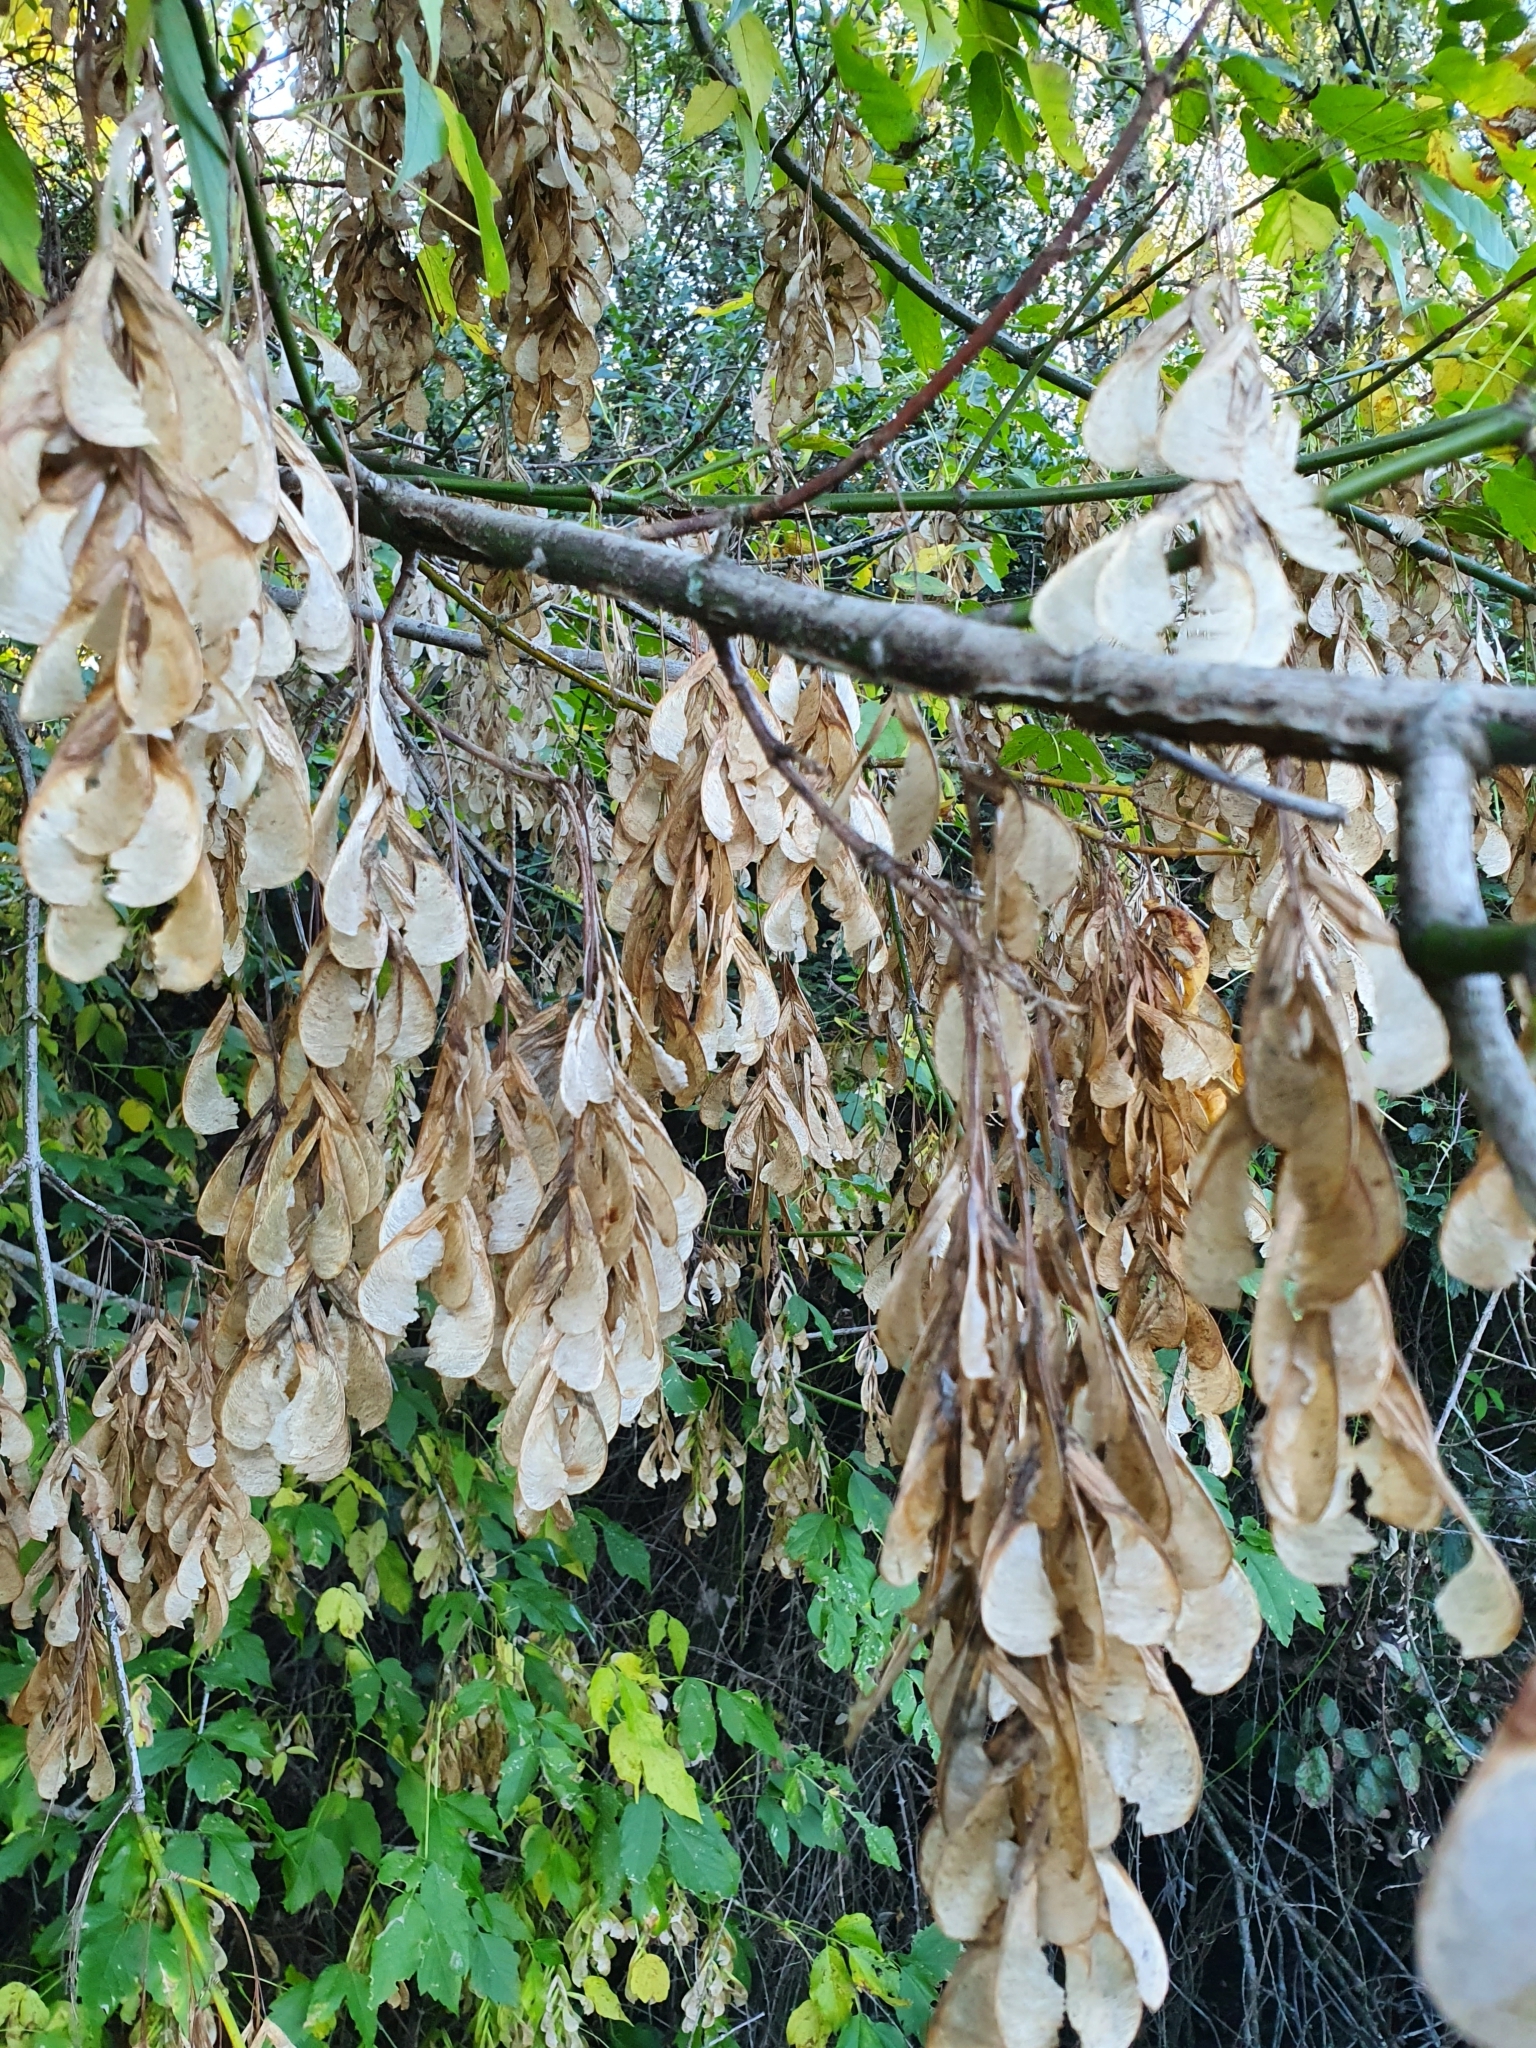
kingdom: Plantae
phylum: Tracheophyta
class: Magnoliopsida
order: Sapindales
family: Sapindaceae
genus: Acer
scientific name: Acer negundo
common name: Ashleaf maple
